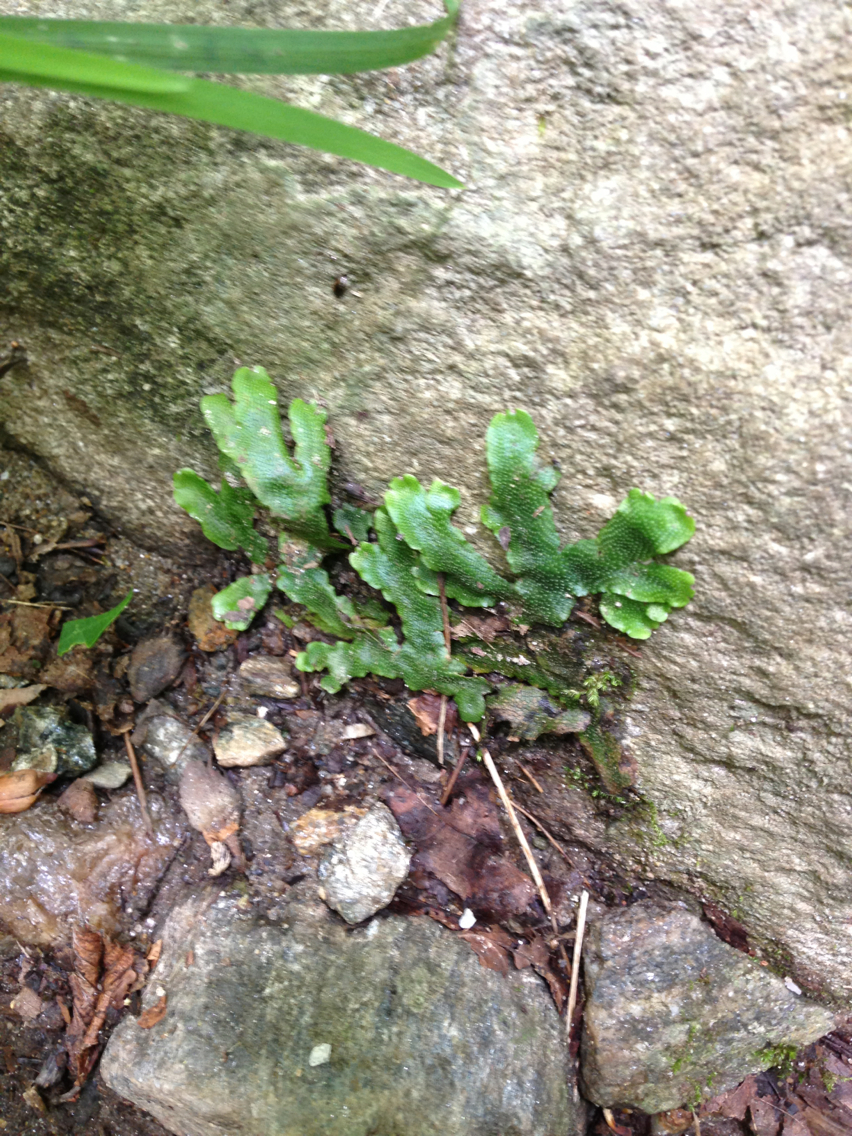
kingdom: Plantae
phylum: Marchantiophyta
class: Marchantiopsida
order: Marchantiales
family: Conocephalaceae
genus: Conocephalum
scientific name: Conocephalum salebrosum
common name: Cat-tongue liverwort
